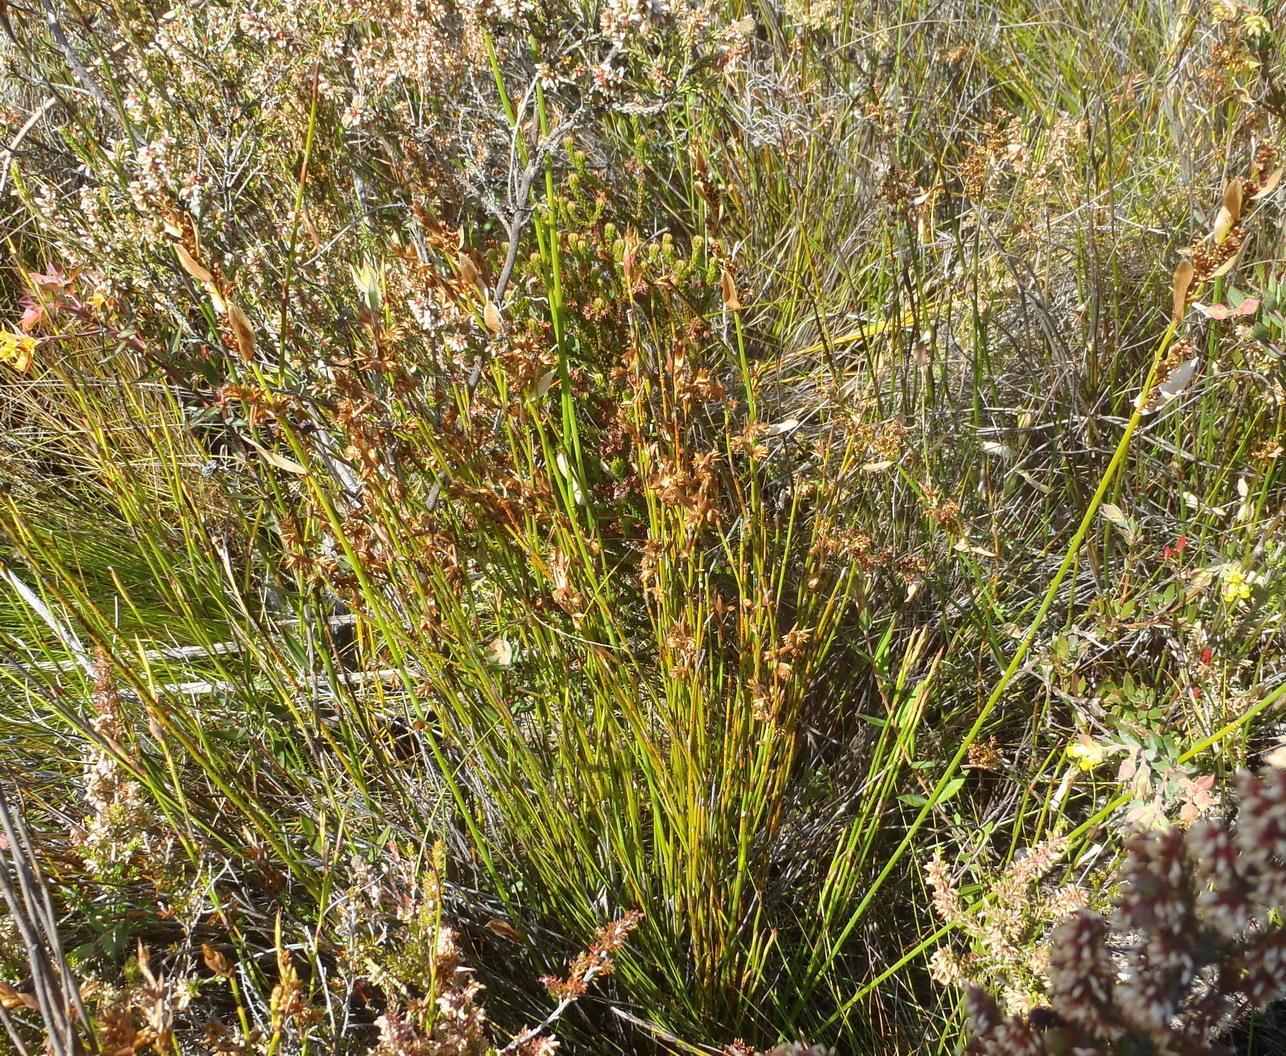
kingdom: Plantae
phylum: Tracheophyta
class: Liliopsida
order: Poales
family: Restionaceae
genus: Elegia
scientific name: Elegia filacea
